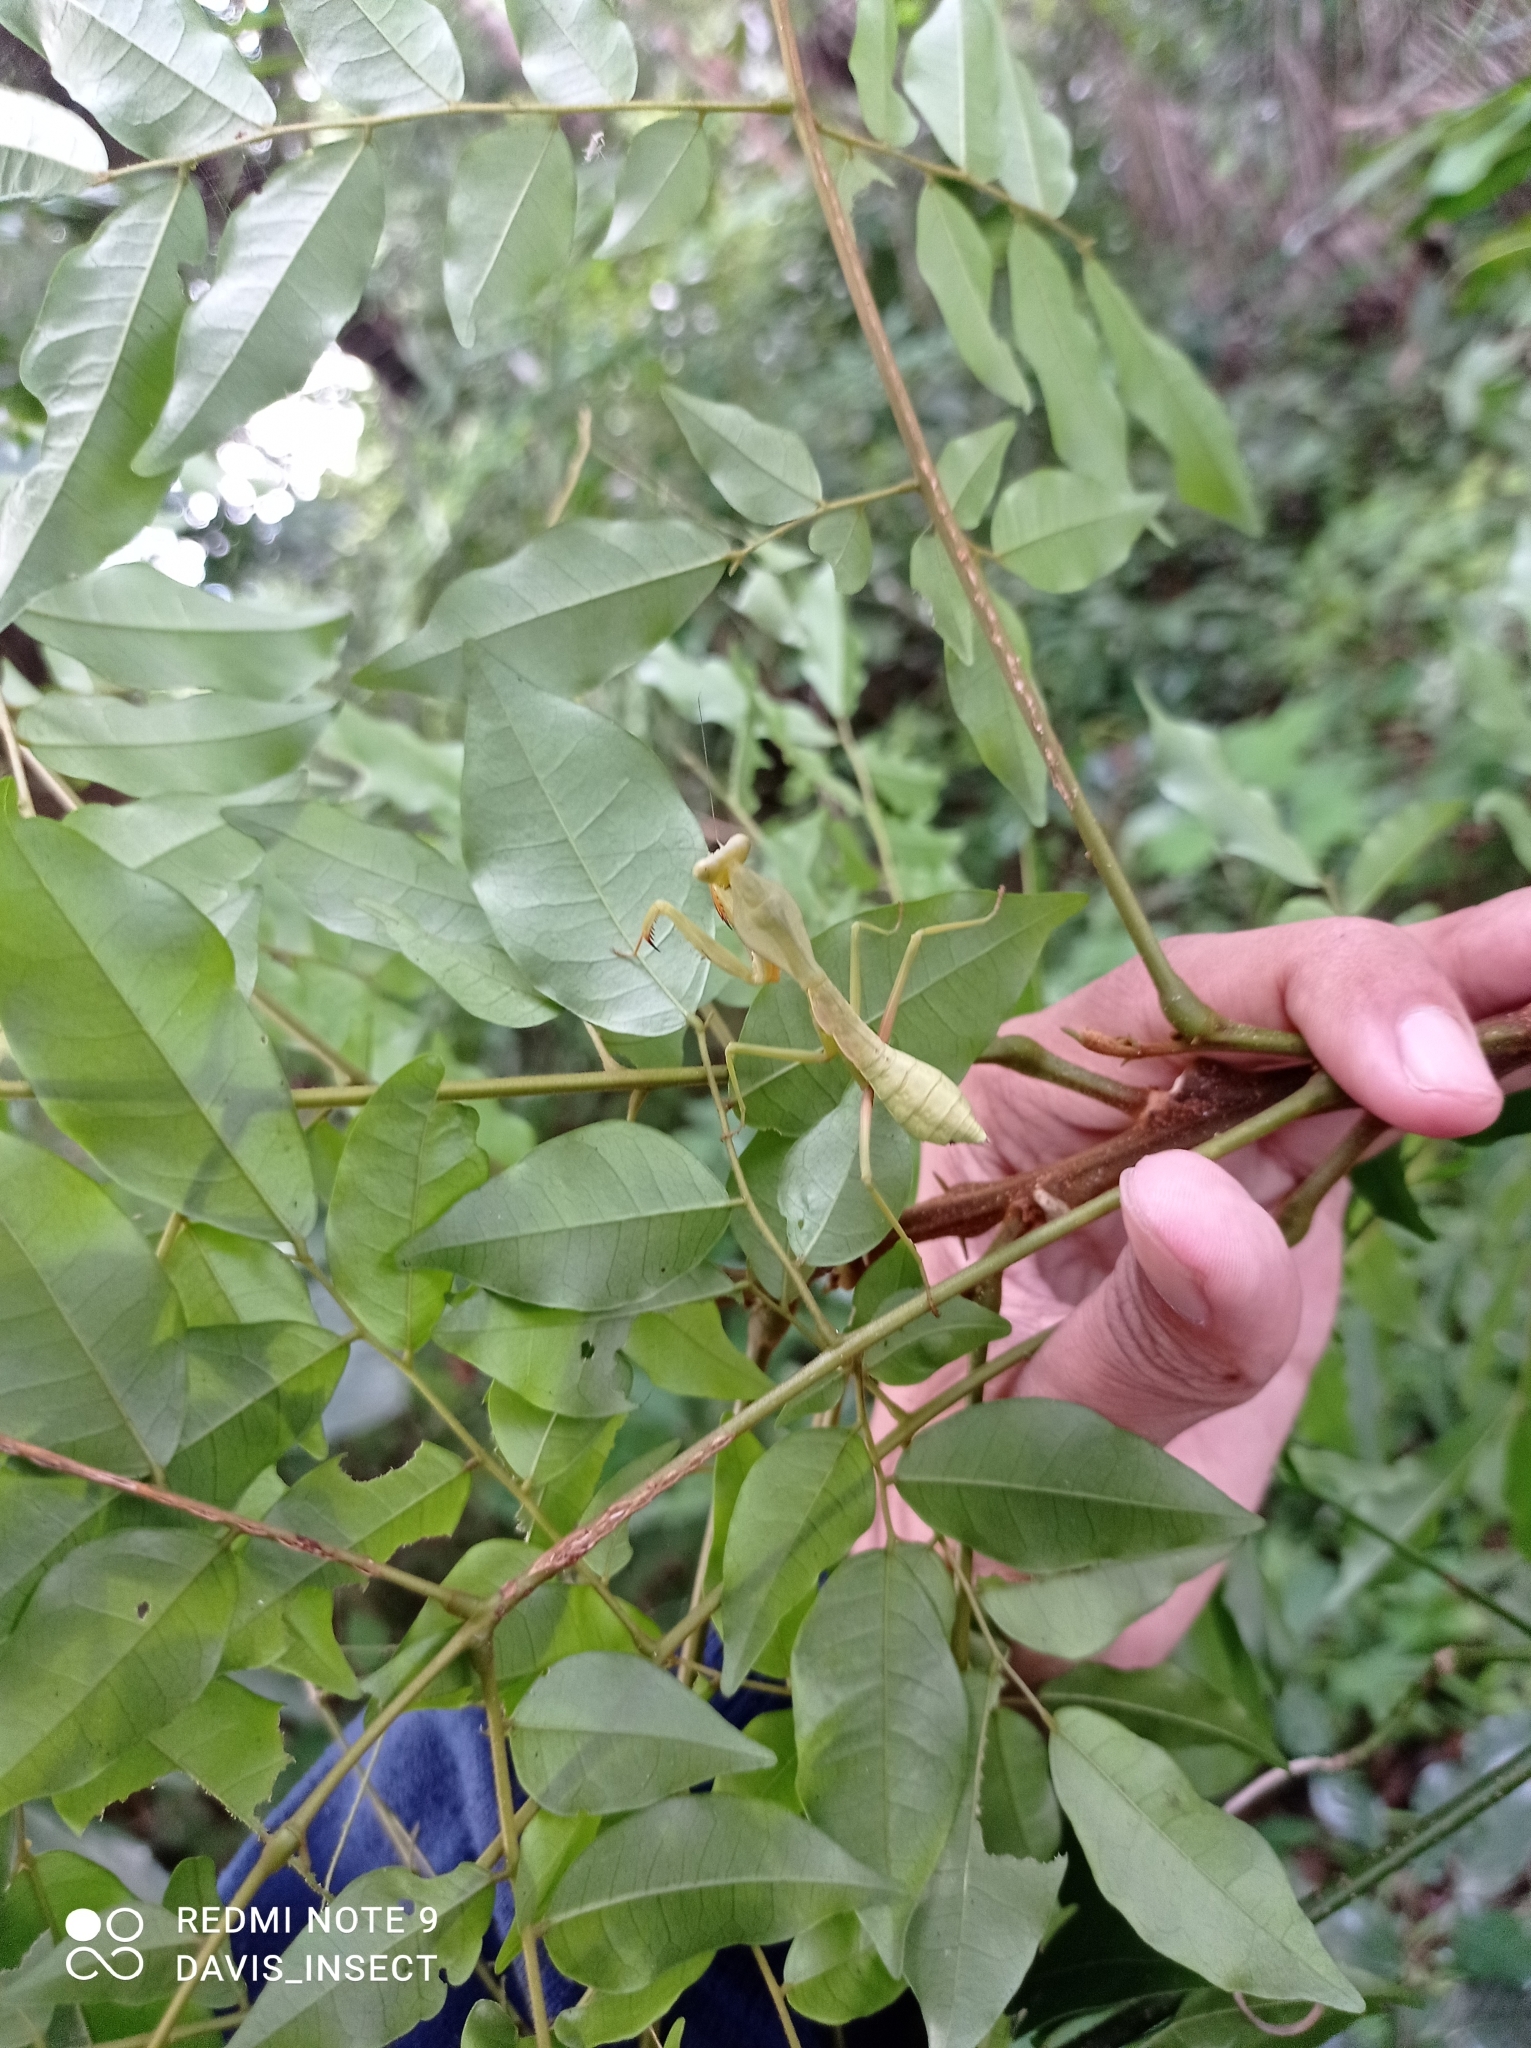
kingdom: Animalia
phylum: Arthropoda
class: Insecta
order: Mantodea
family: Mantidae
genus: Rhombodera
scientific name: Rhombodera kirbyi
